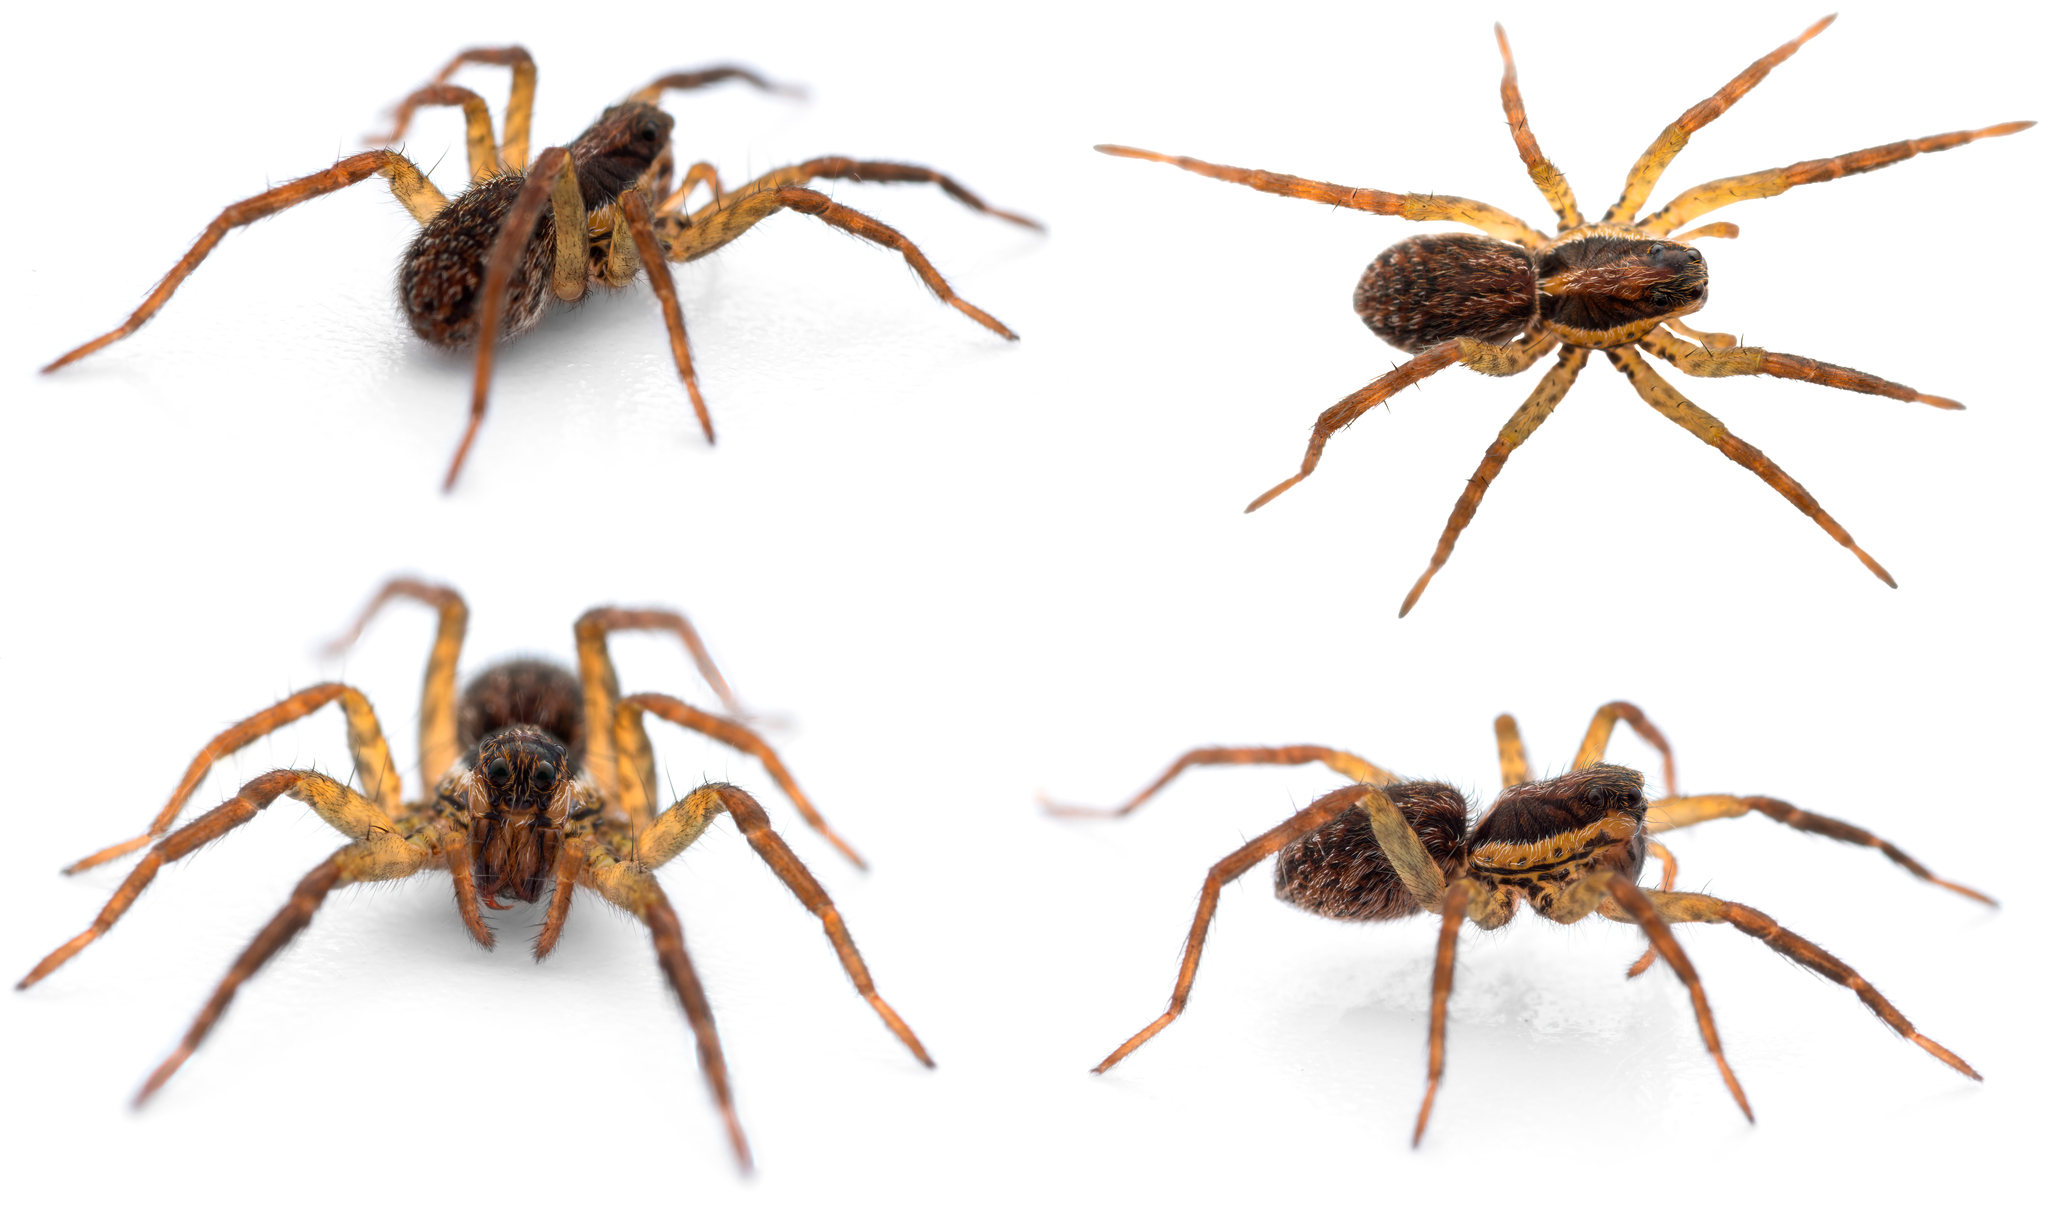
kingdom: Animalia
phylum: Arthropoda
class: Arachnida
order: Araneae
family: Lycosidae
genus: Hogna
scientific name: Hogna radiata
